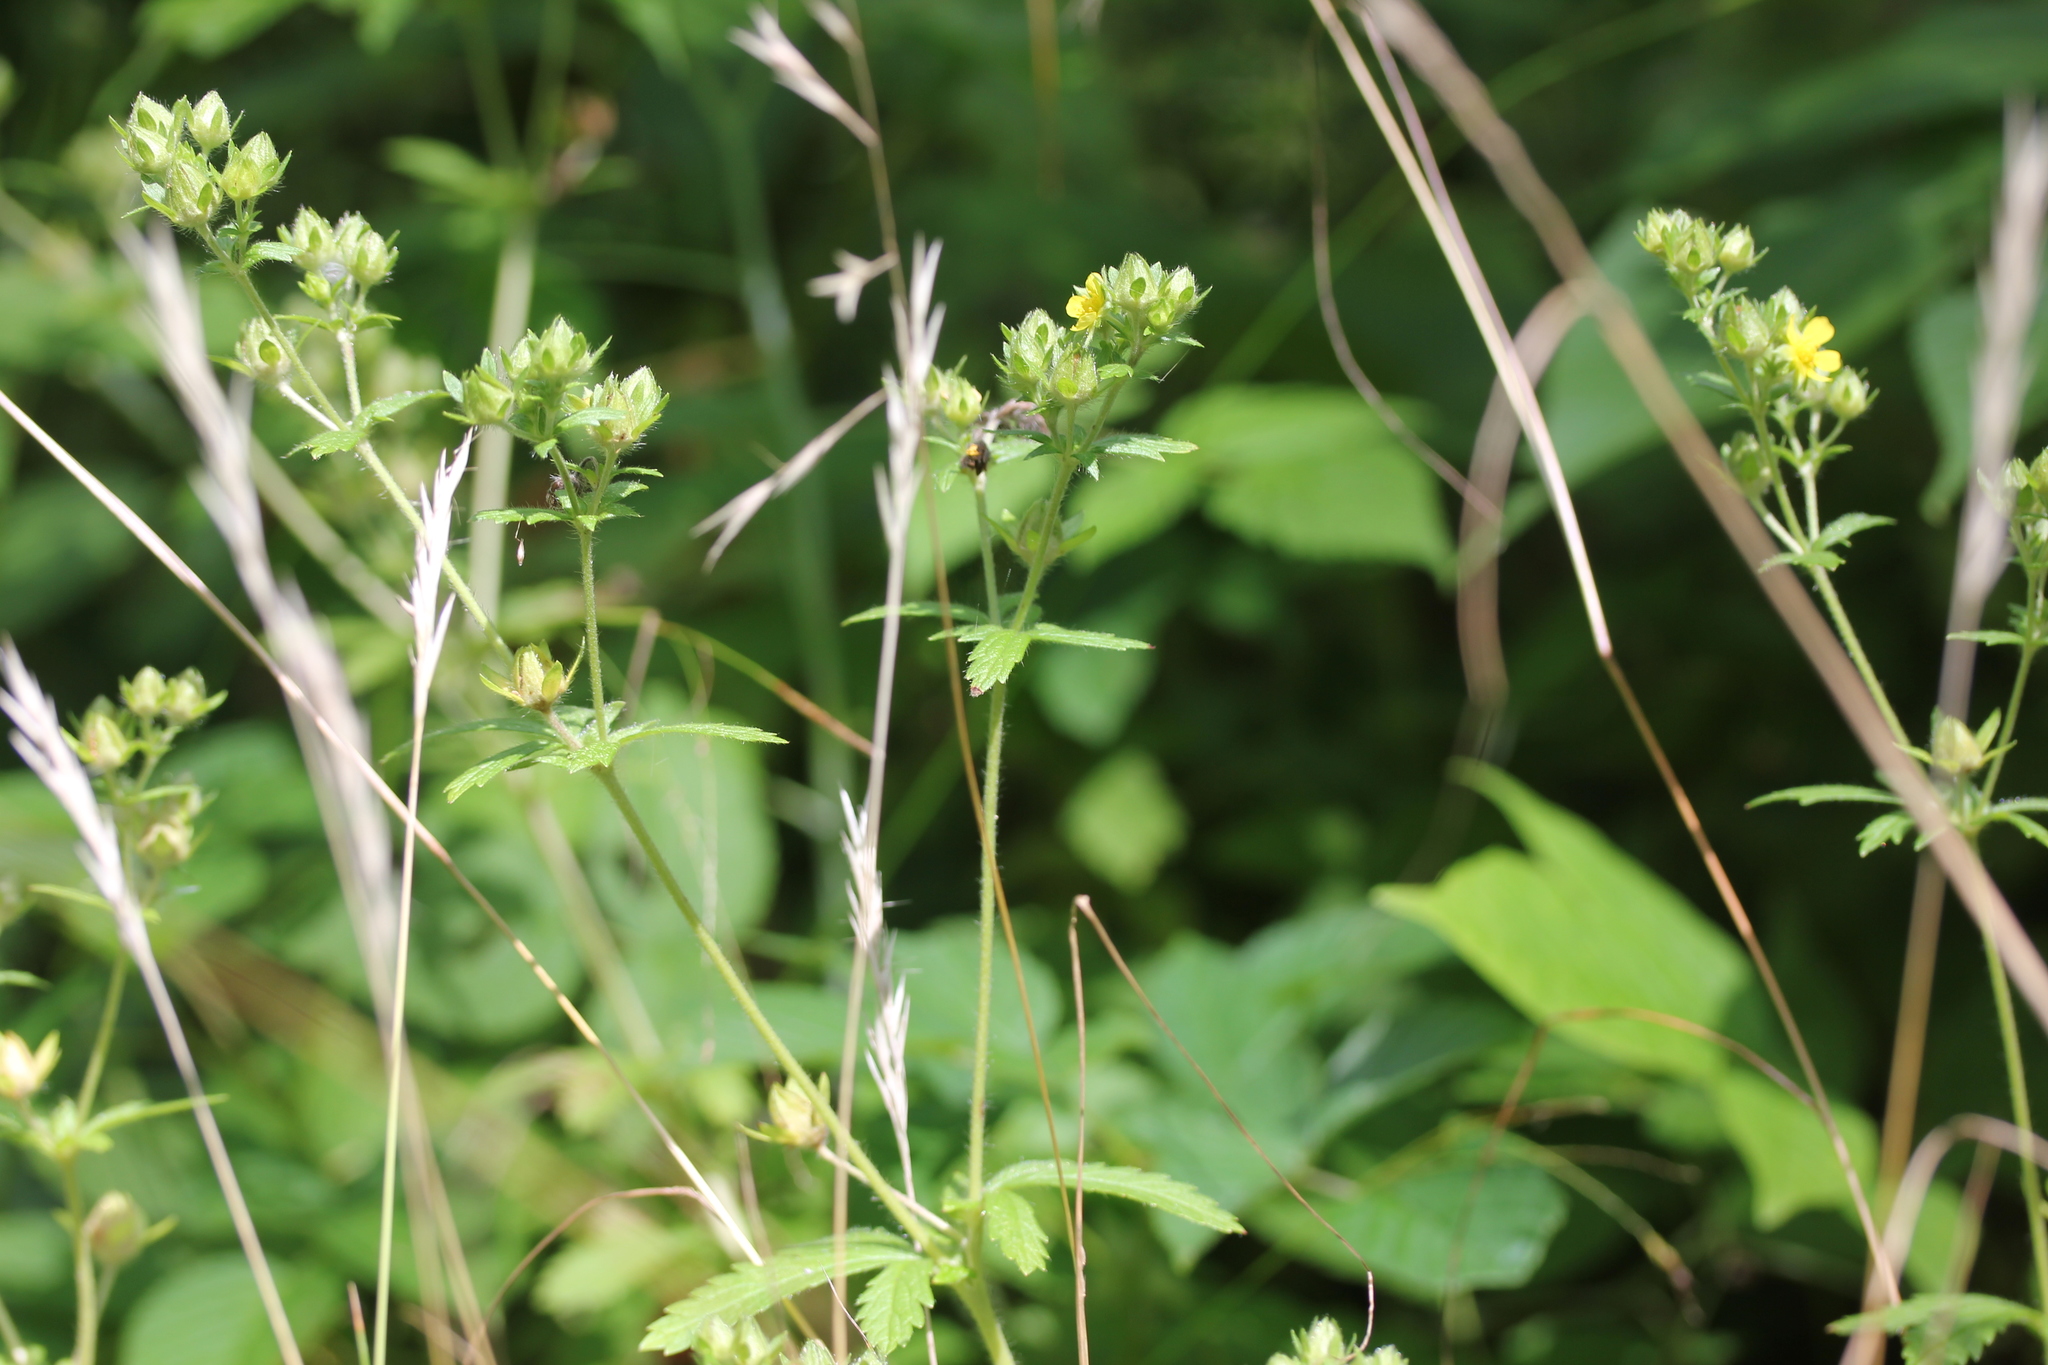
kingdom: Plantae
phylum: Tracheophyta
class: Magnoliopsida
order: Rosales
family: Rosaceae
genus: Potentilla
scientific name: Potentilla recta
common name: Sulphur cinquefoil
